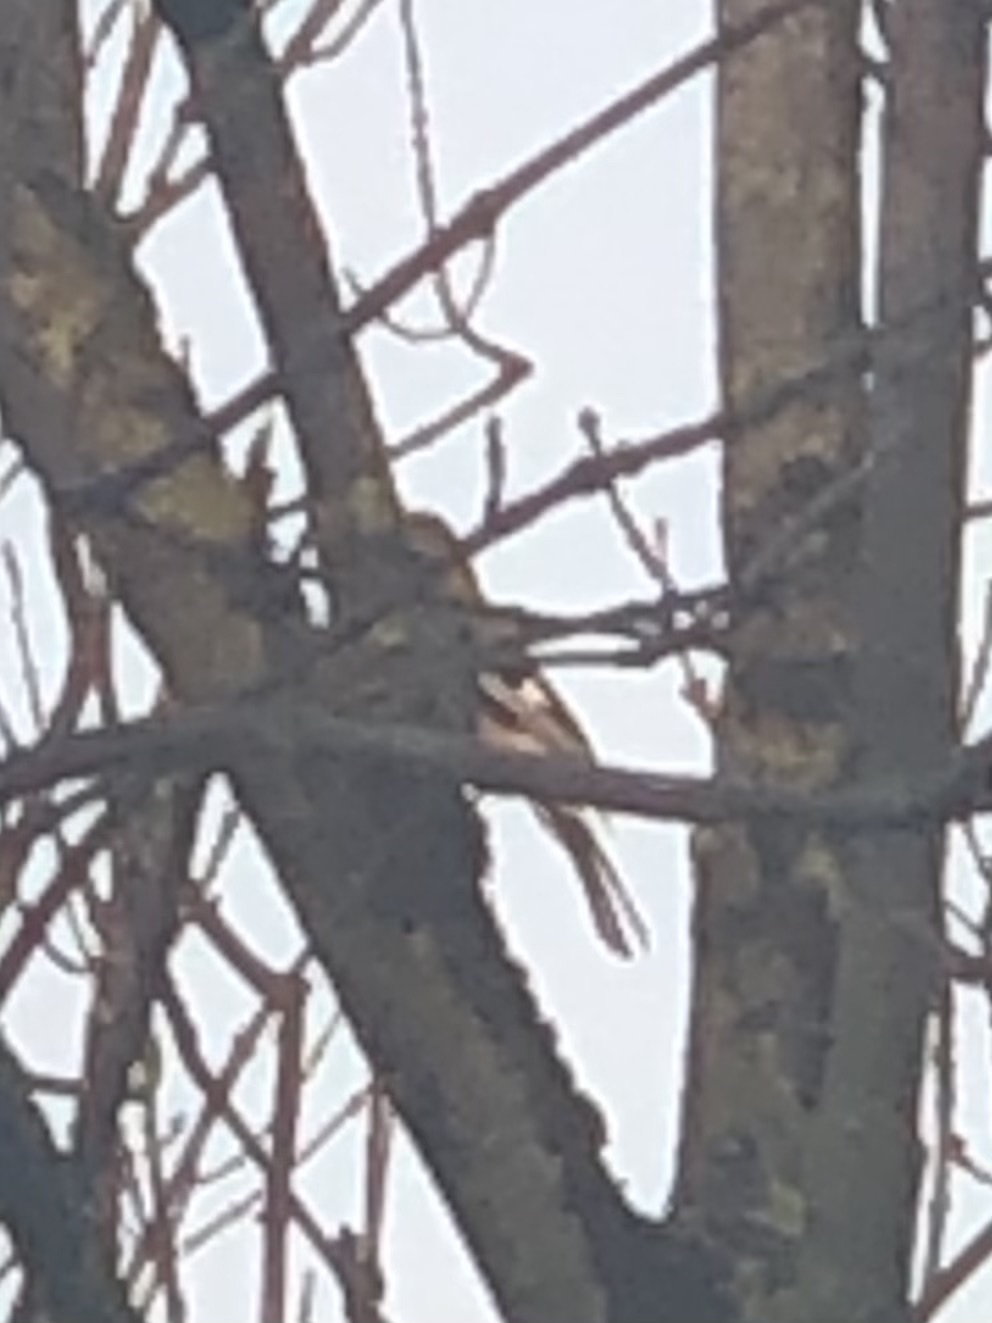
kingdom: Animalia
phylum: Chordata
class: Aves
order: Passeriformes
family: Corvidae
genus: Garrulus
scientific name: Garrulus glandarius
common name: Eurasian jay
